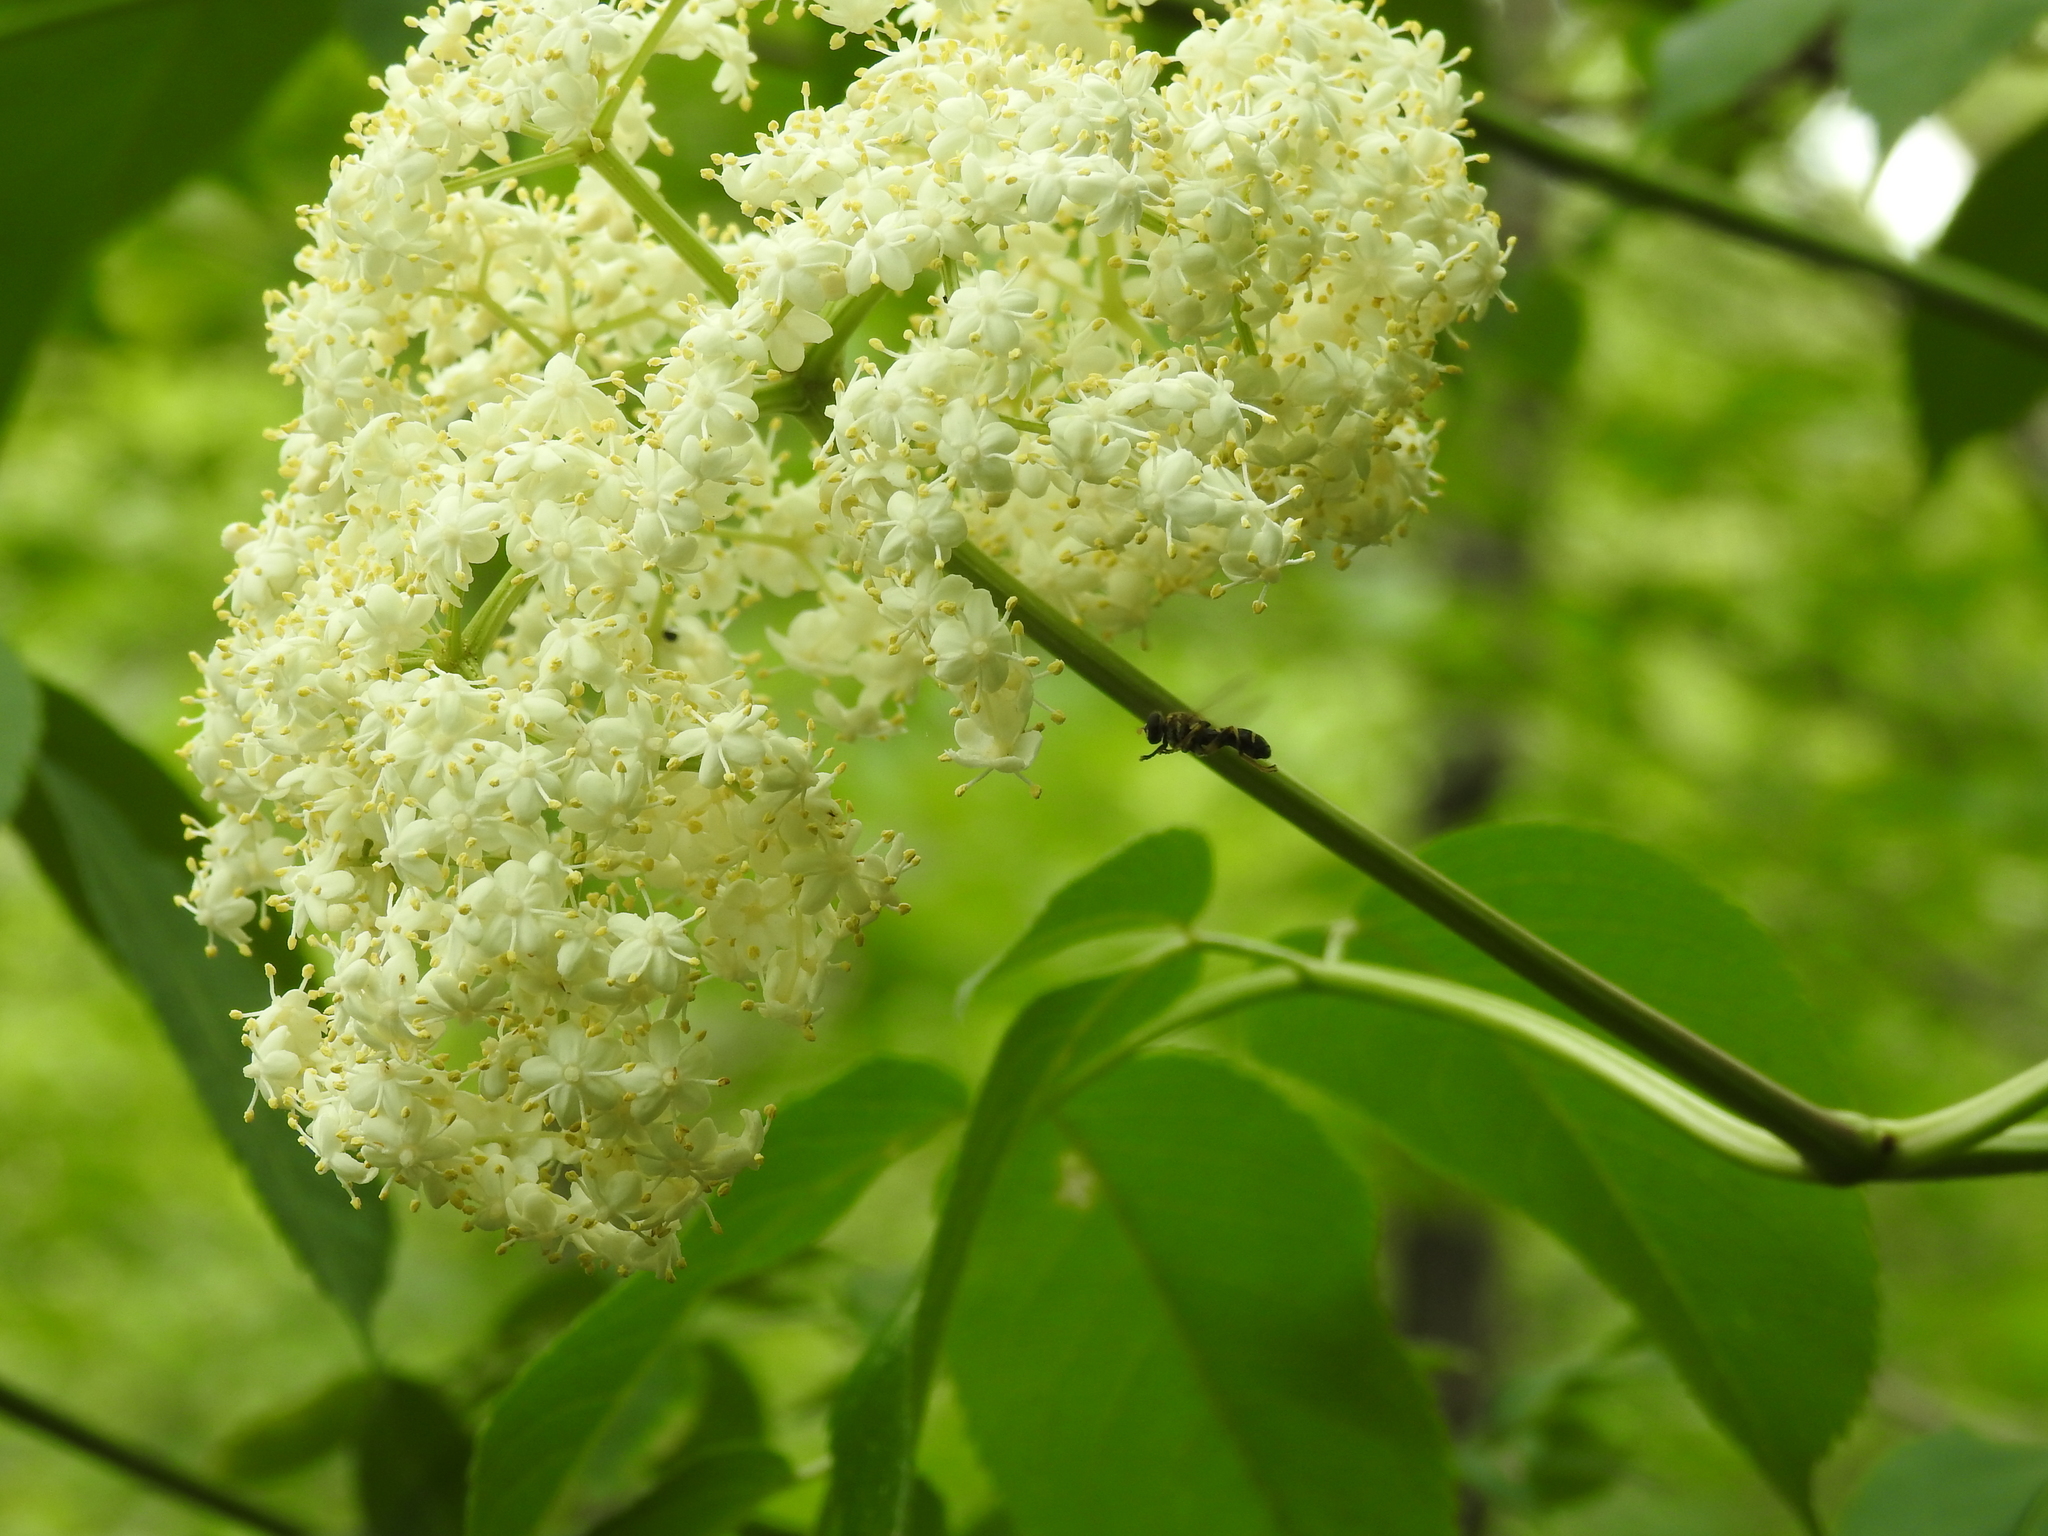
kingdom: Plantae
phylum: Tracheophyta
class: Magnoliopsida
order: Dipsacales
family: Viburnaceae
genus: Sambucus
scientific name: Sambucus canadensis
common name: American elder
